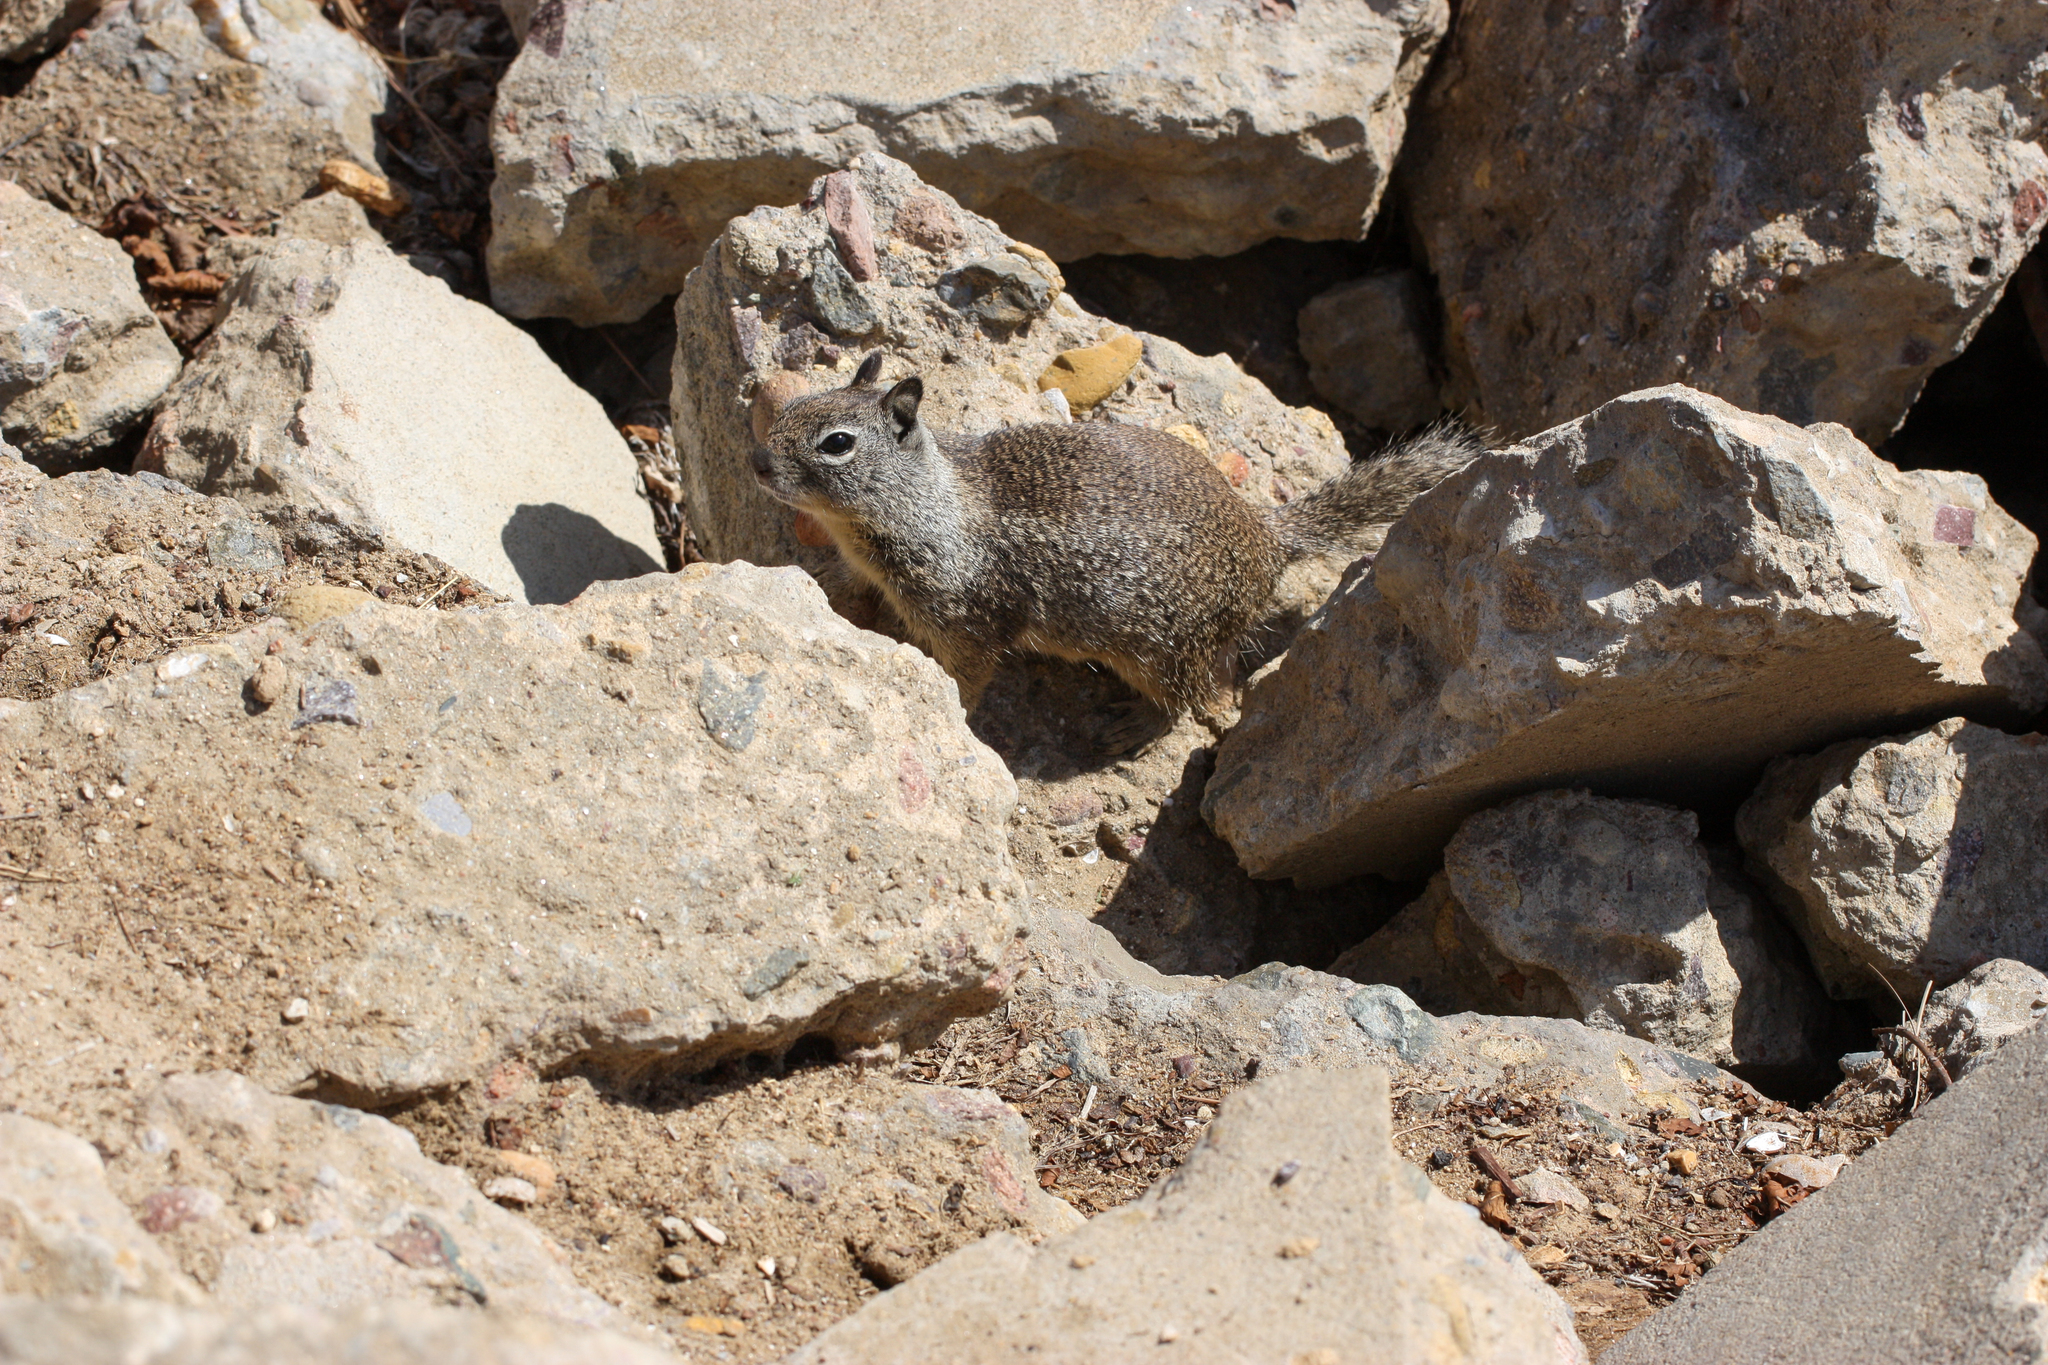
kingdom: Animalia
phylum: Chordata
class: Mammalia
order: Rodentia
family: Sciuridae
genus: Otospermophilus
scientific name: Otospermophilus beecheyi
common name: California ground squirrel
